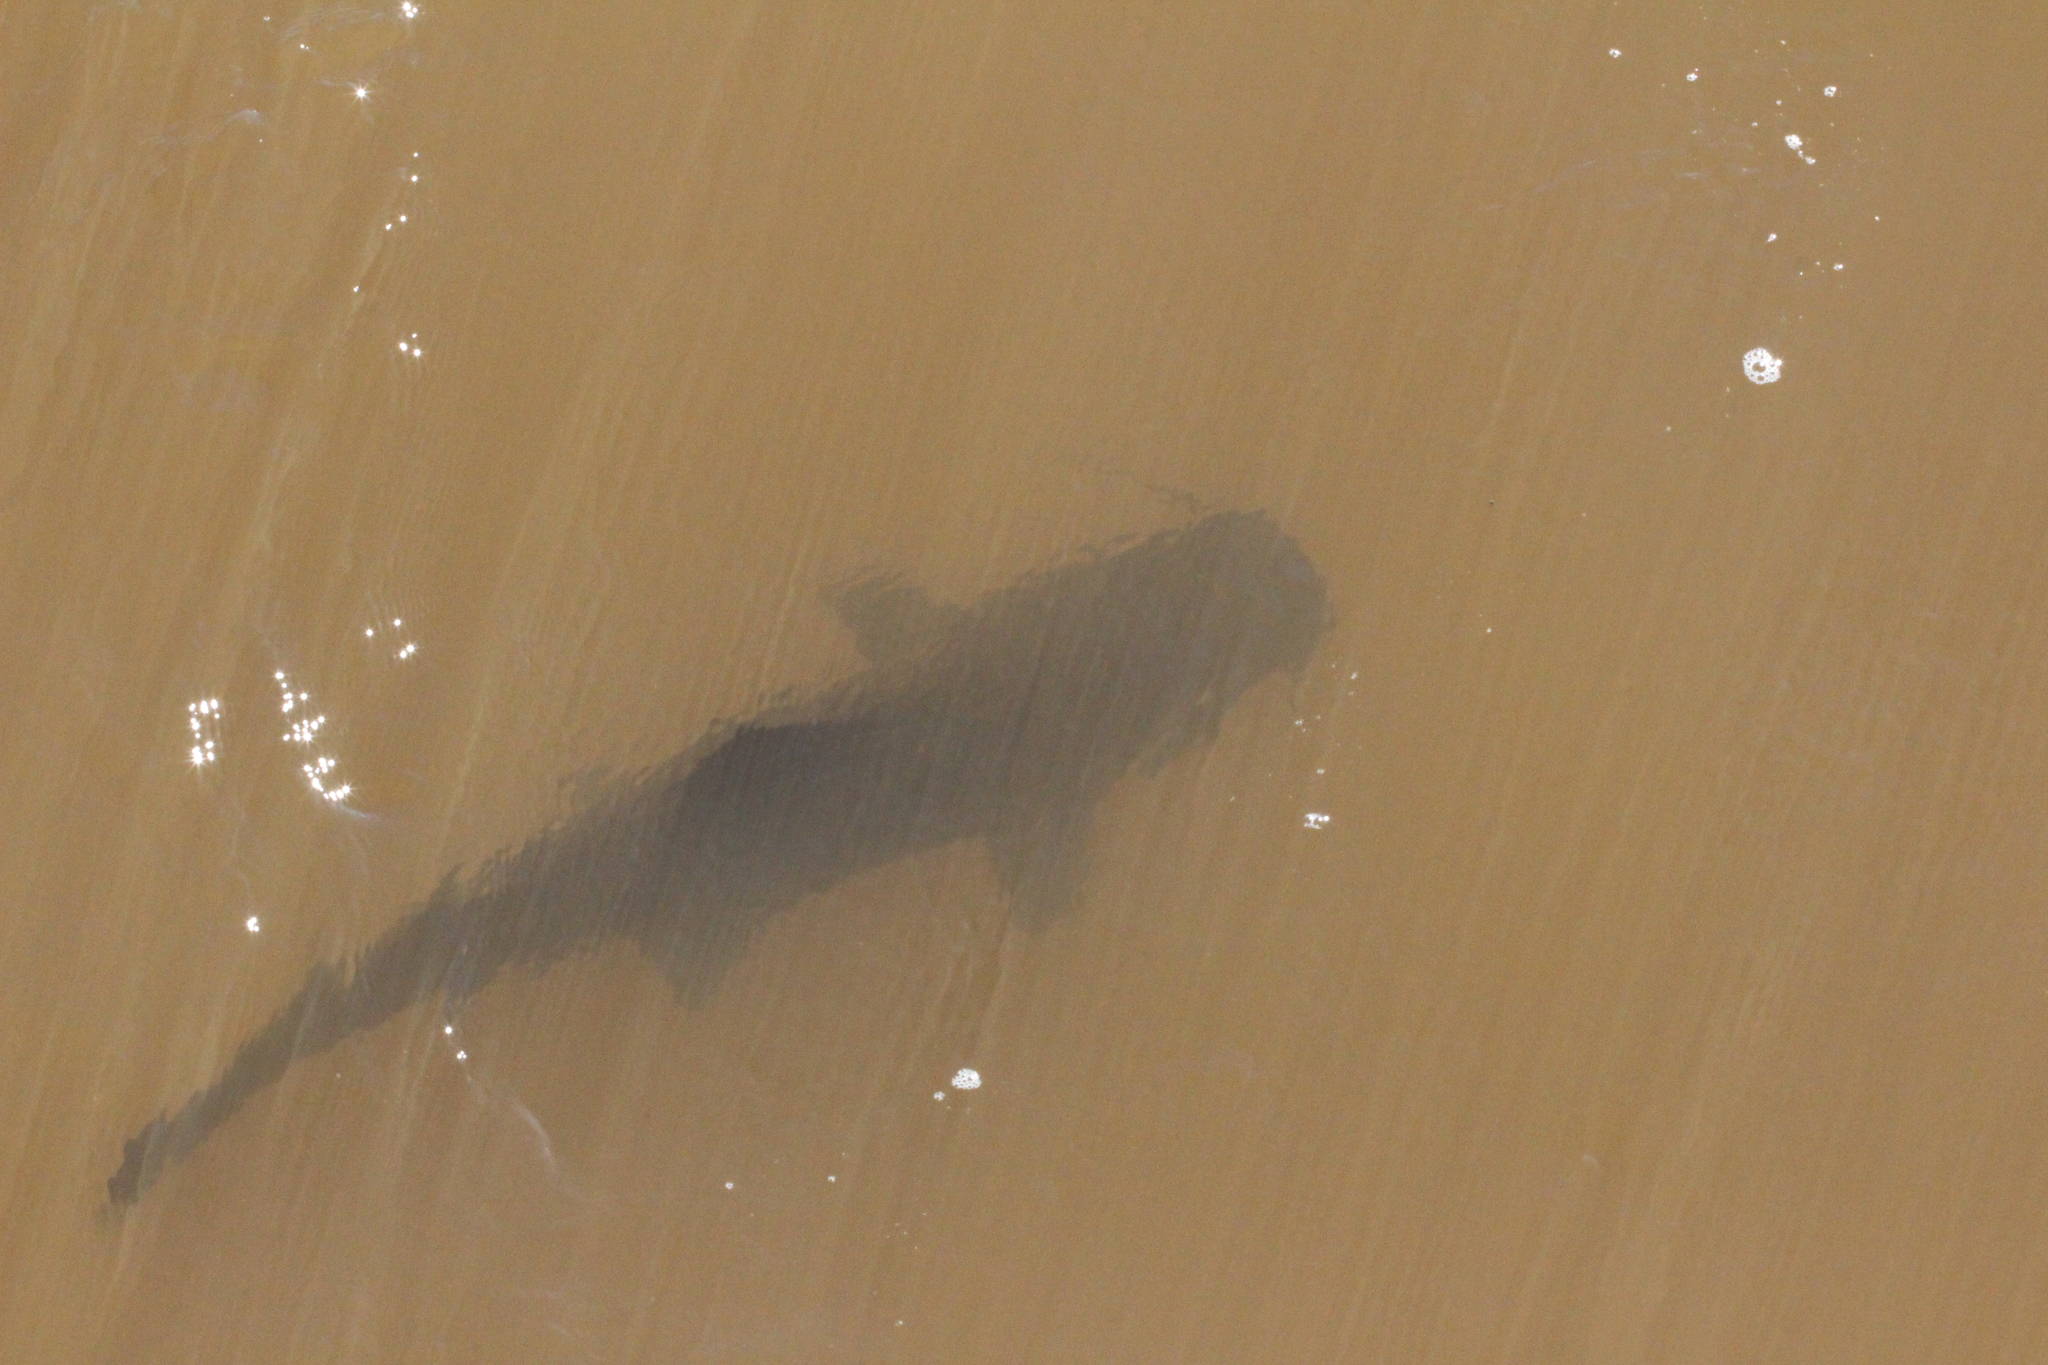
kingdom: Animalia
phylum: Chordata
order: Siluriformes
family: Pimelodidae
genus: Steindachneridion
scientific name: Steindachneridion melanodermatum
